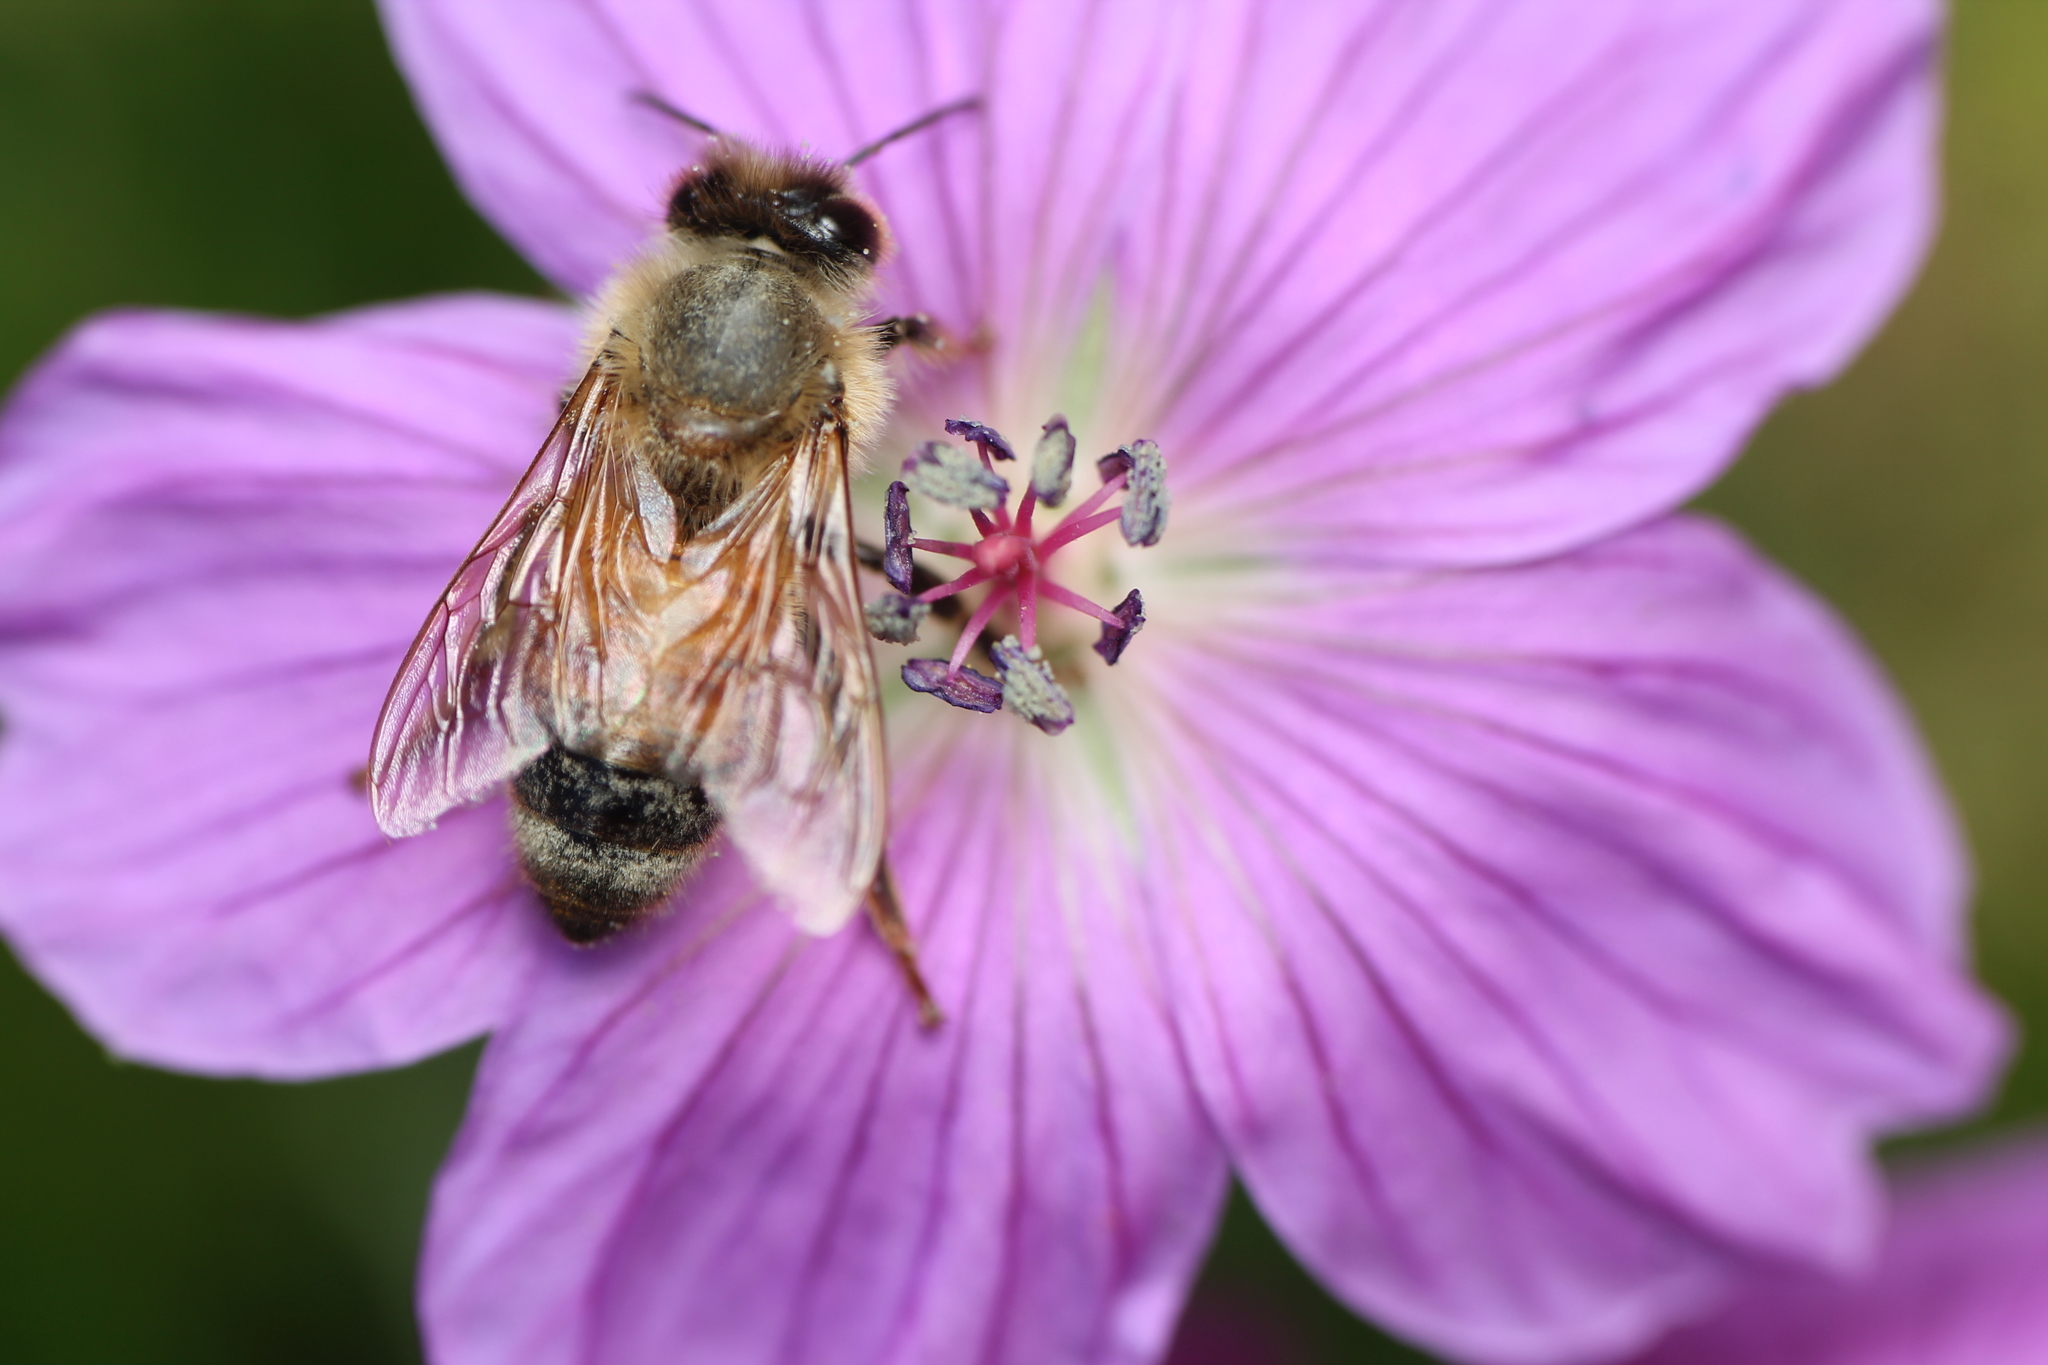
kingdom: Animalia
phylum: Arthropoda
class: Insecta
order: Hymenoptera
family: Apidae
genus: Apis
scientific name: Apis mellifera
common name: Honey bee
